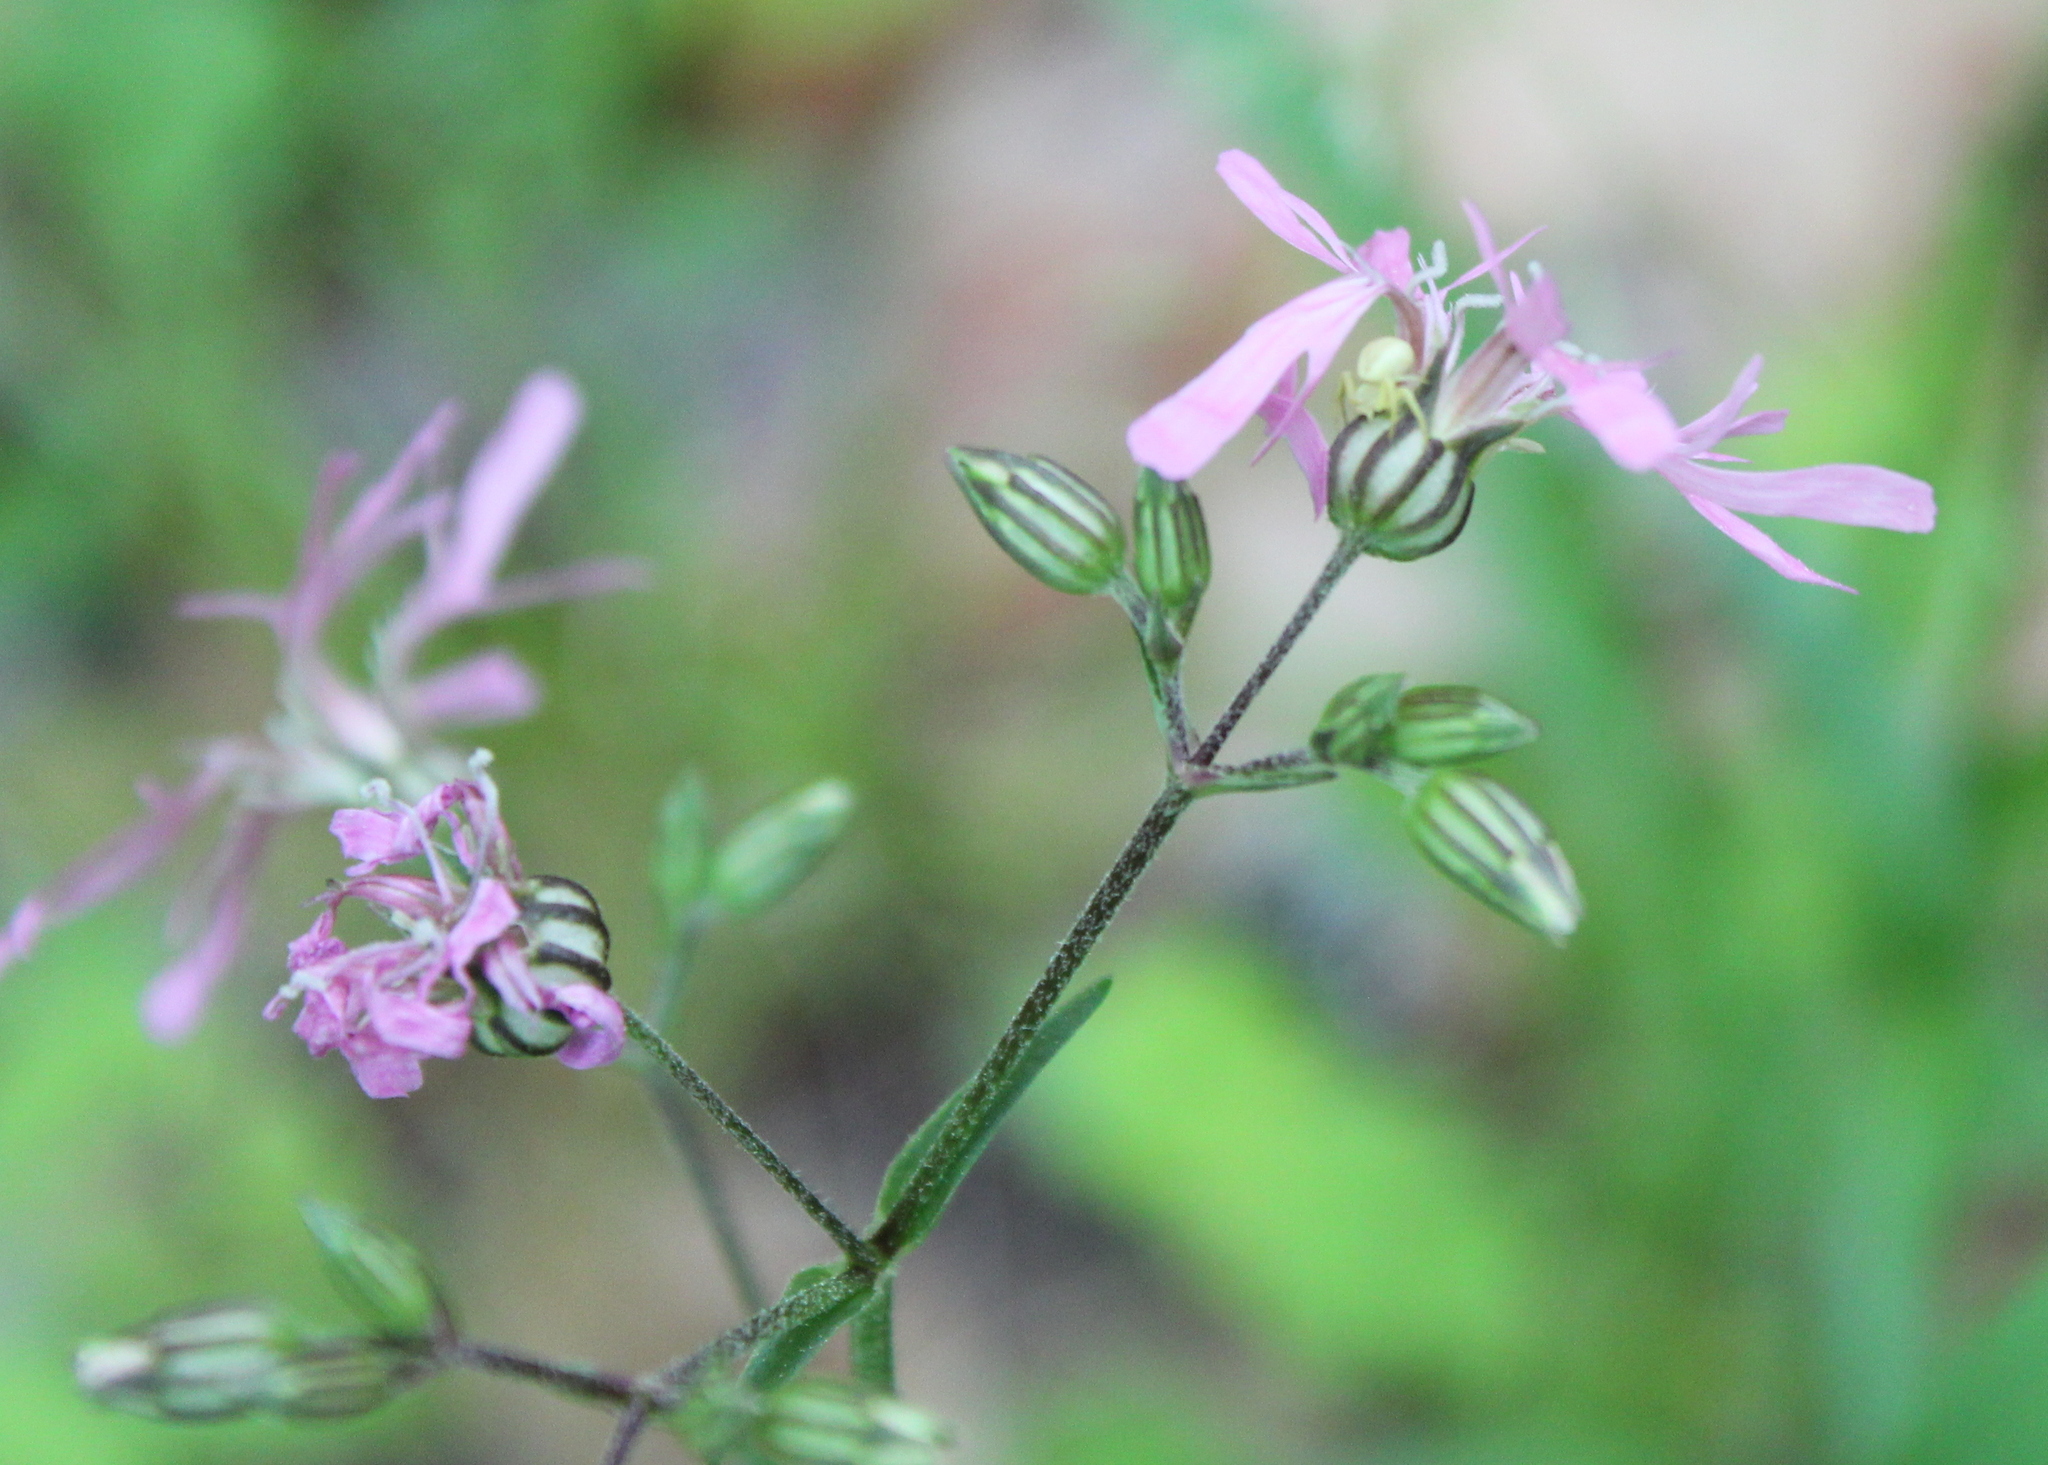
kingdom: Plantae
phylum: Tracheophyta
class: Magnoliopsida
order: Caryophyllales
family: Caryophyllaceae
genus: Silene
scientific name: Silene flos-cuculi
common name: Ragged-robin
